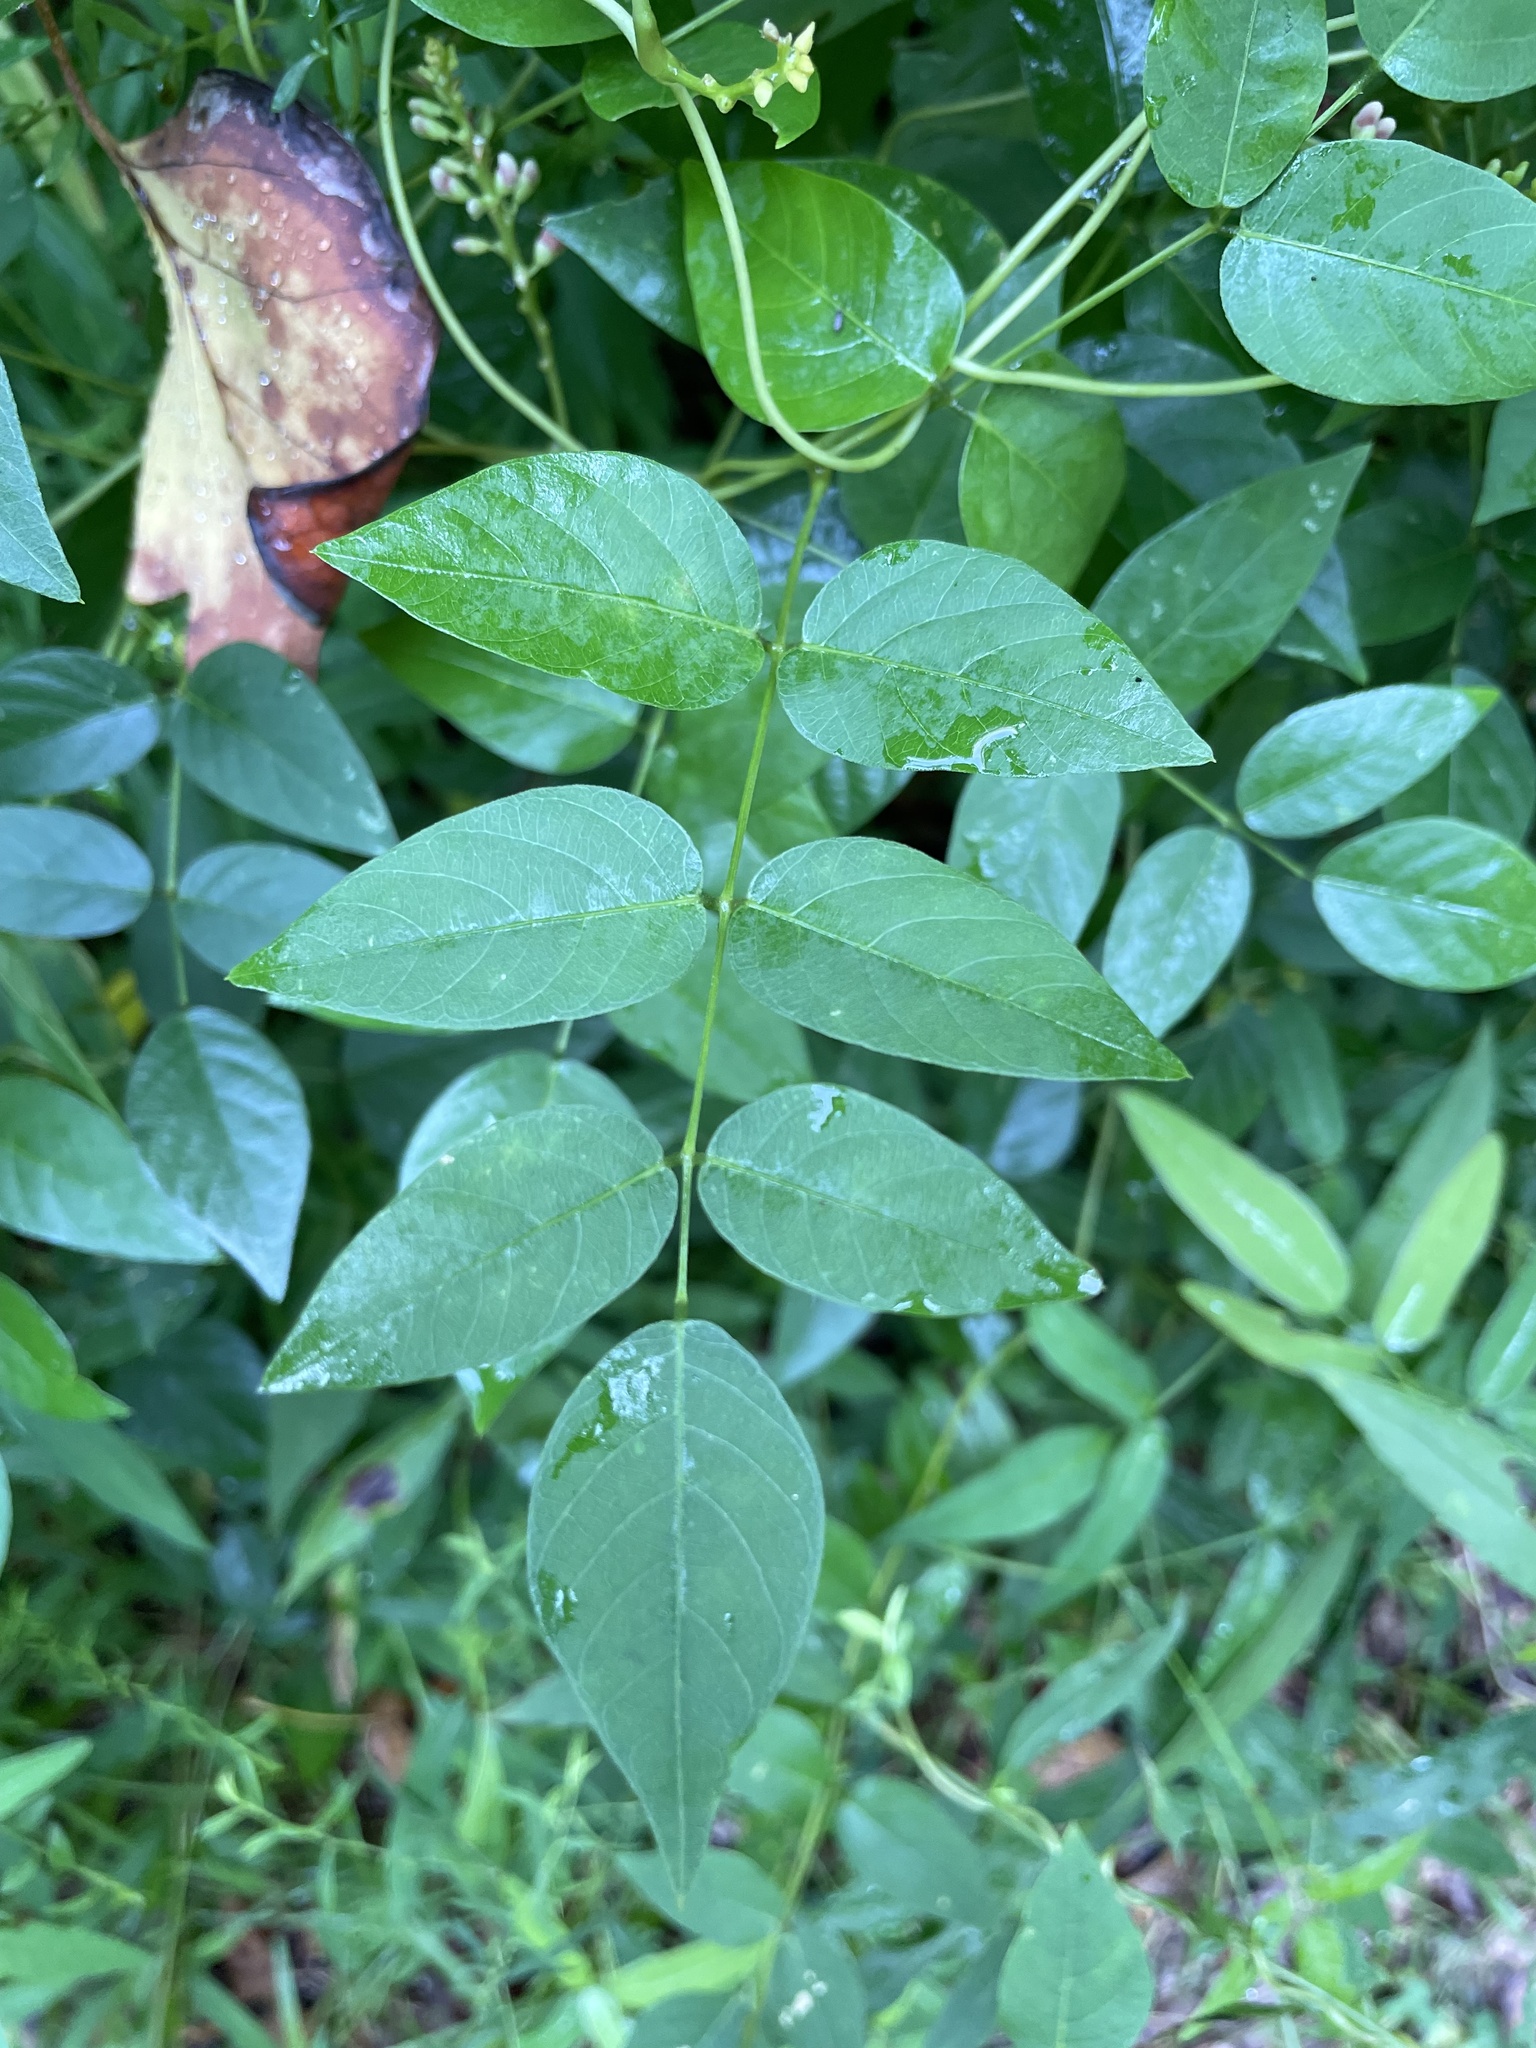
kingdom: Plantae
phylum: Tracheophyta
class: Magnoliopsida
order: Fabales
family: Fabaceae
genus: Apios
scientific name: Apios americana
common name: American potato-bean
